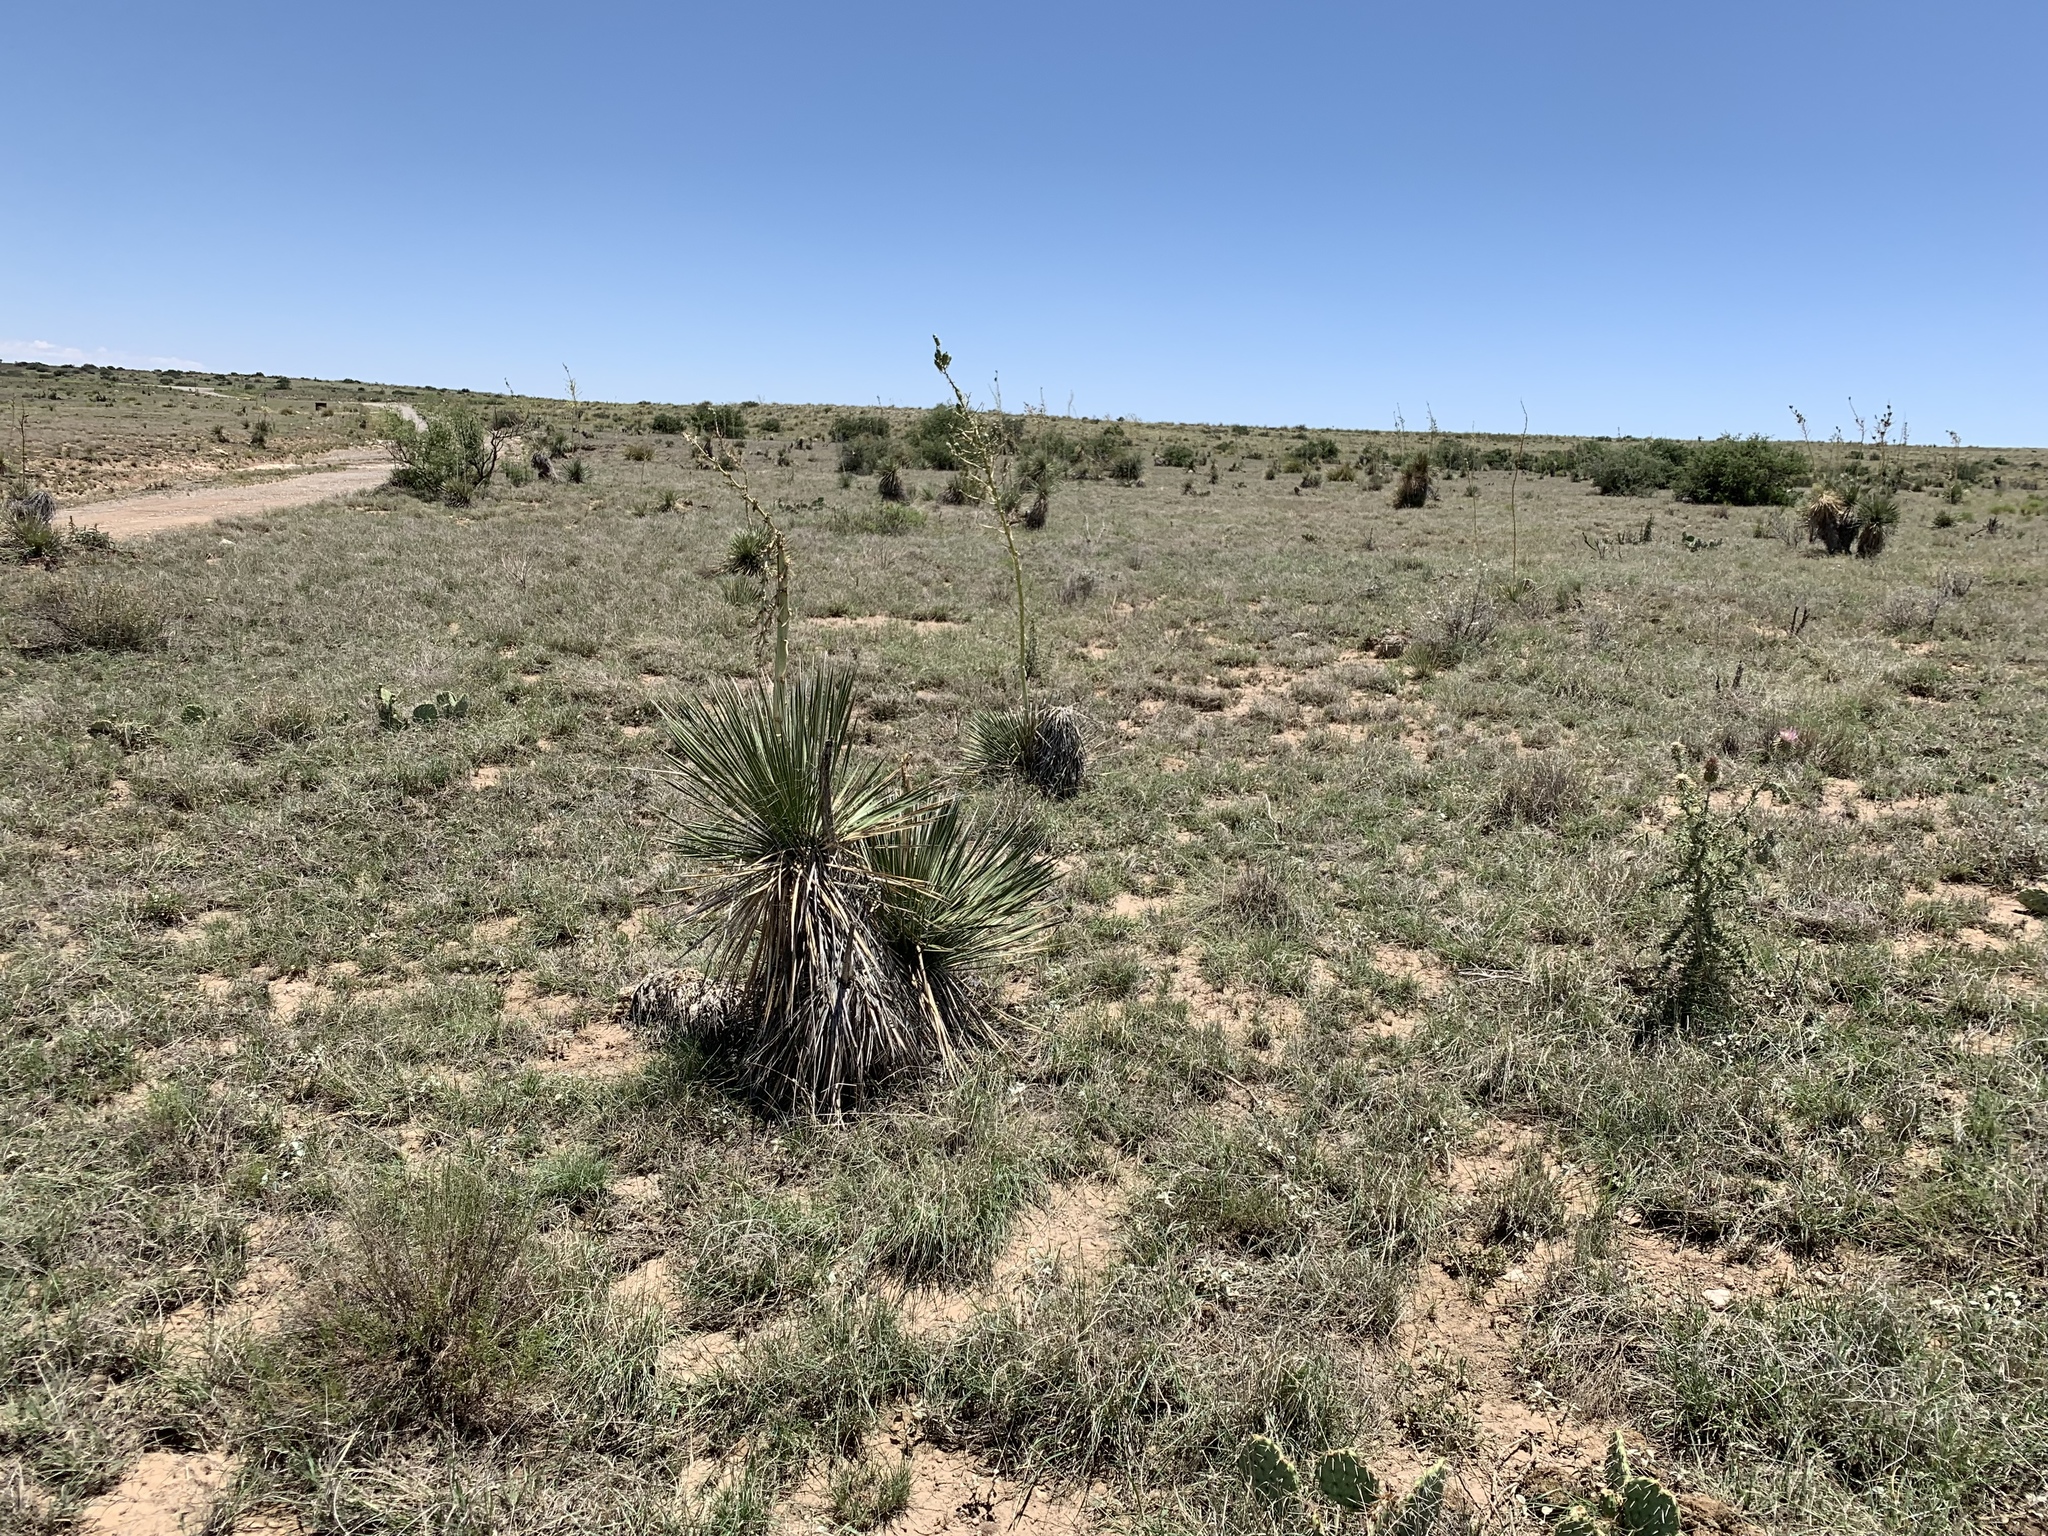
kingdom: Plantae
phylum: Tracheophyta
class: Liliopsida
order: Asparagales
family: Asparagaceae
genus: Yucca
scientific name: Yucca elata
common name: Palmella
